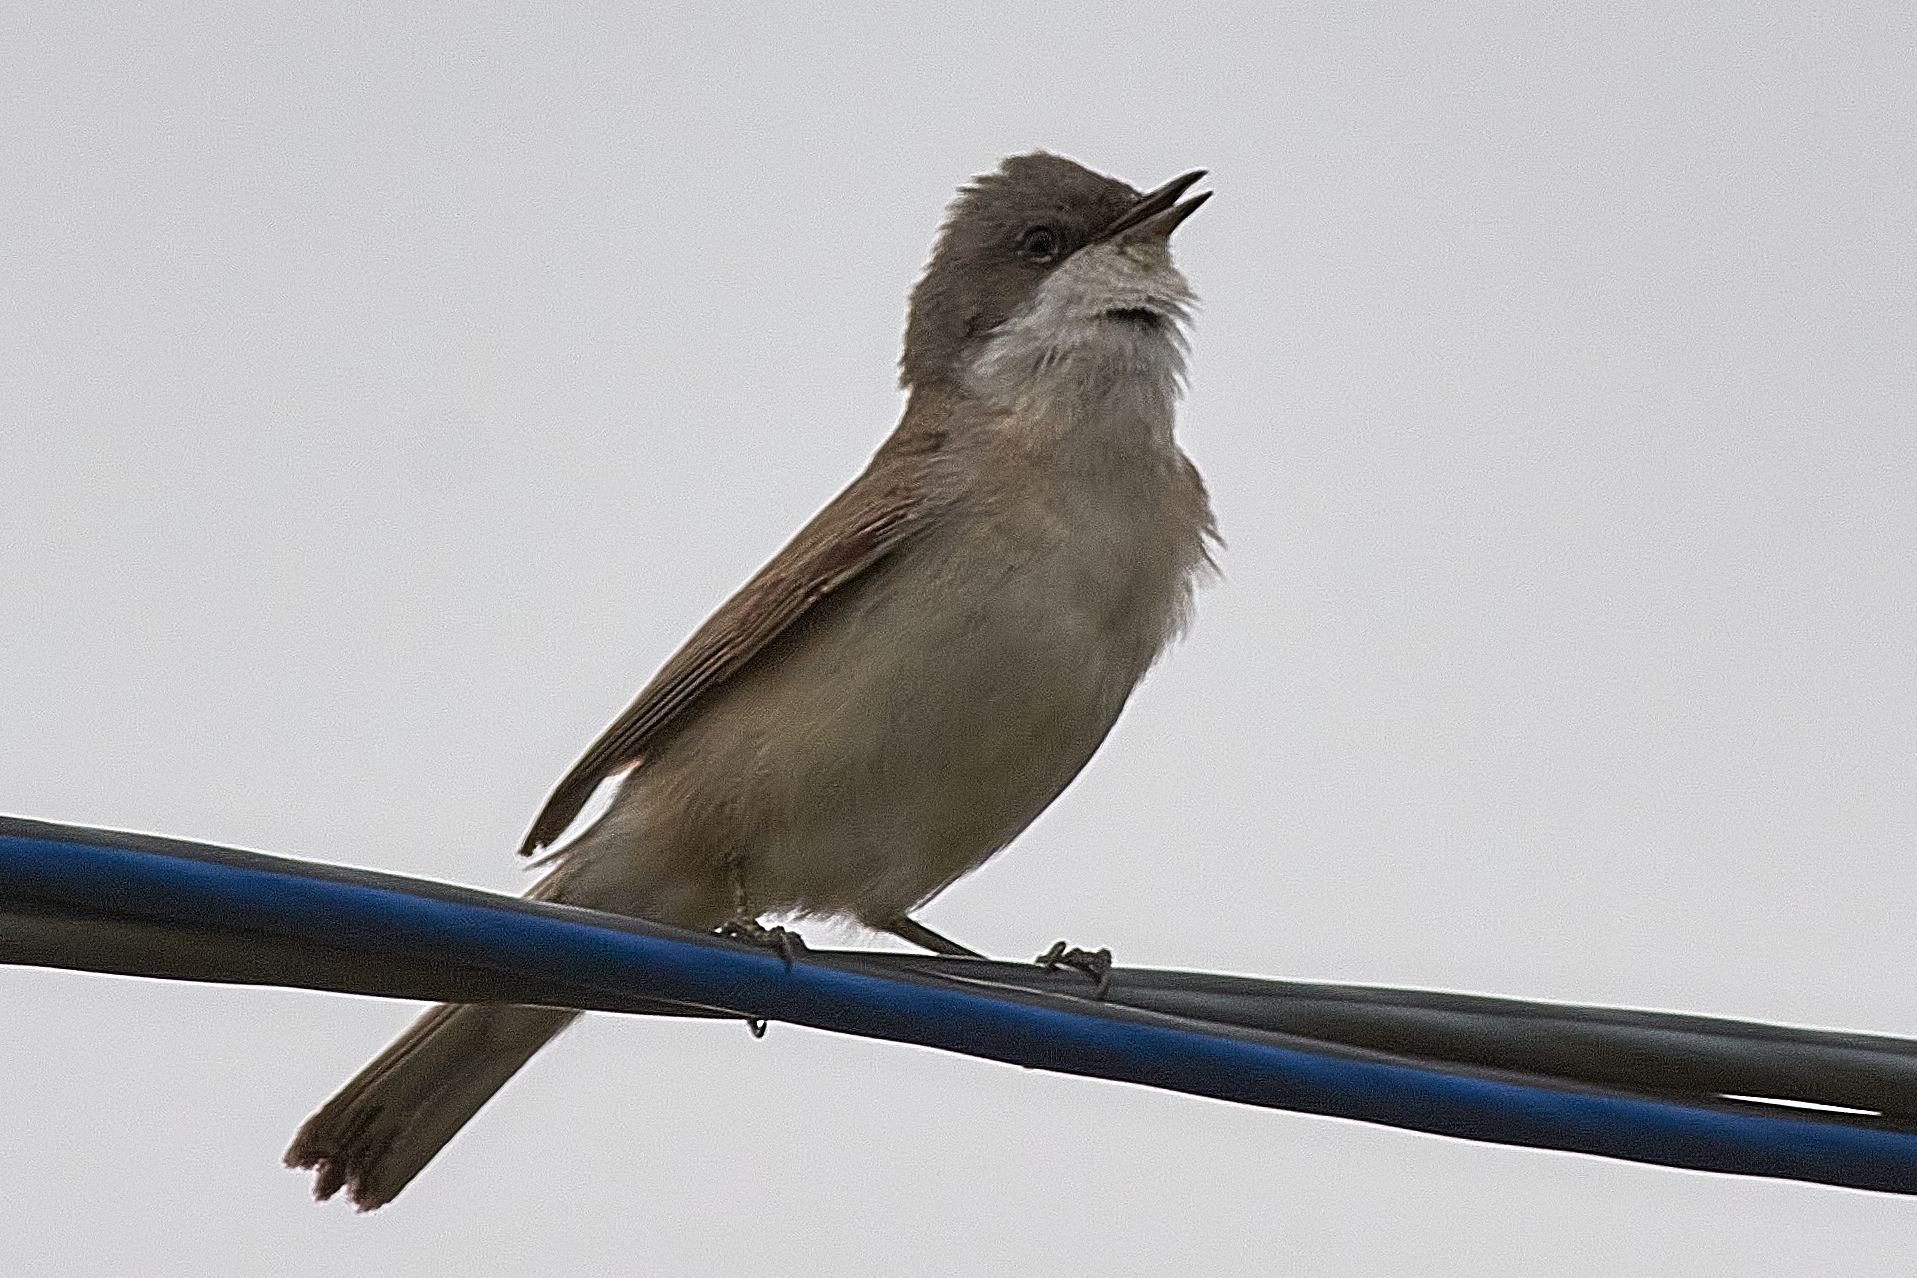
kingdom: Animalia
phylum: Chordata
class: Aves
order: Passeriformes
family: Sylviidae
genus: Sylvia
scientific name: Sylvia curruca
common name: Lesser whitethroat
